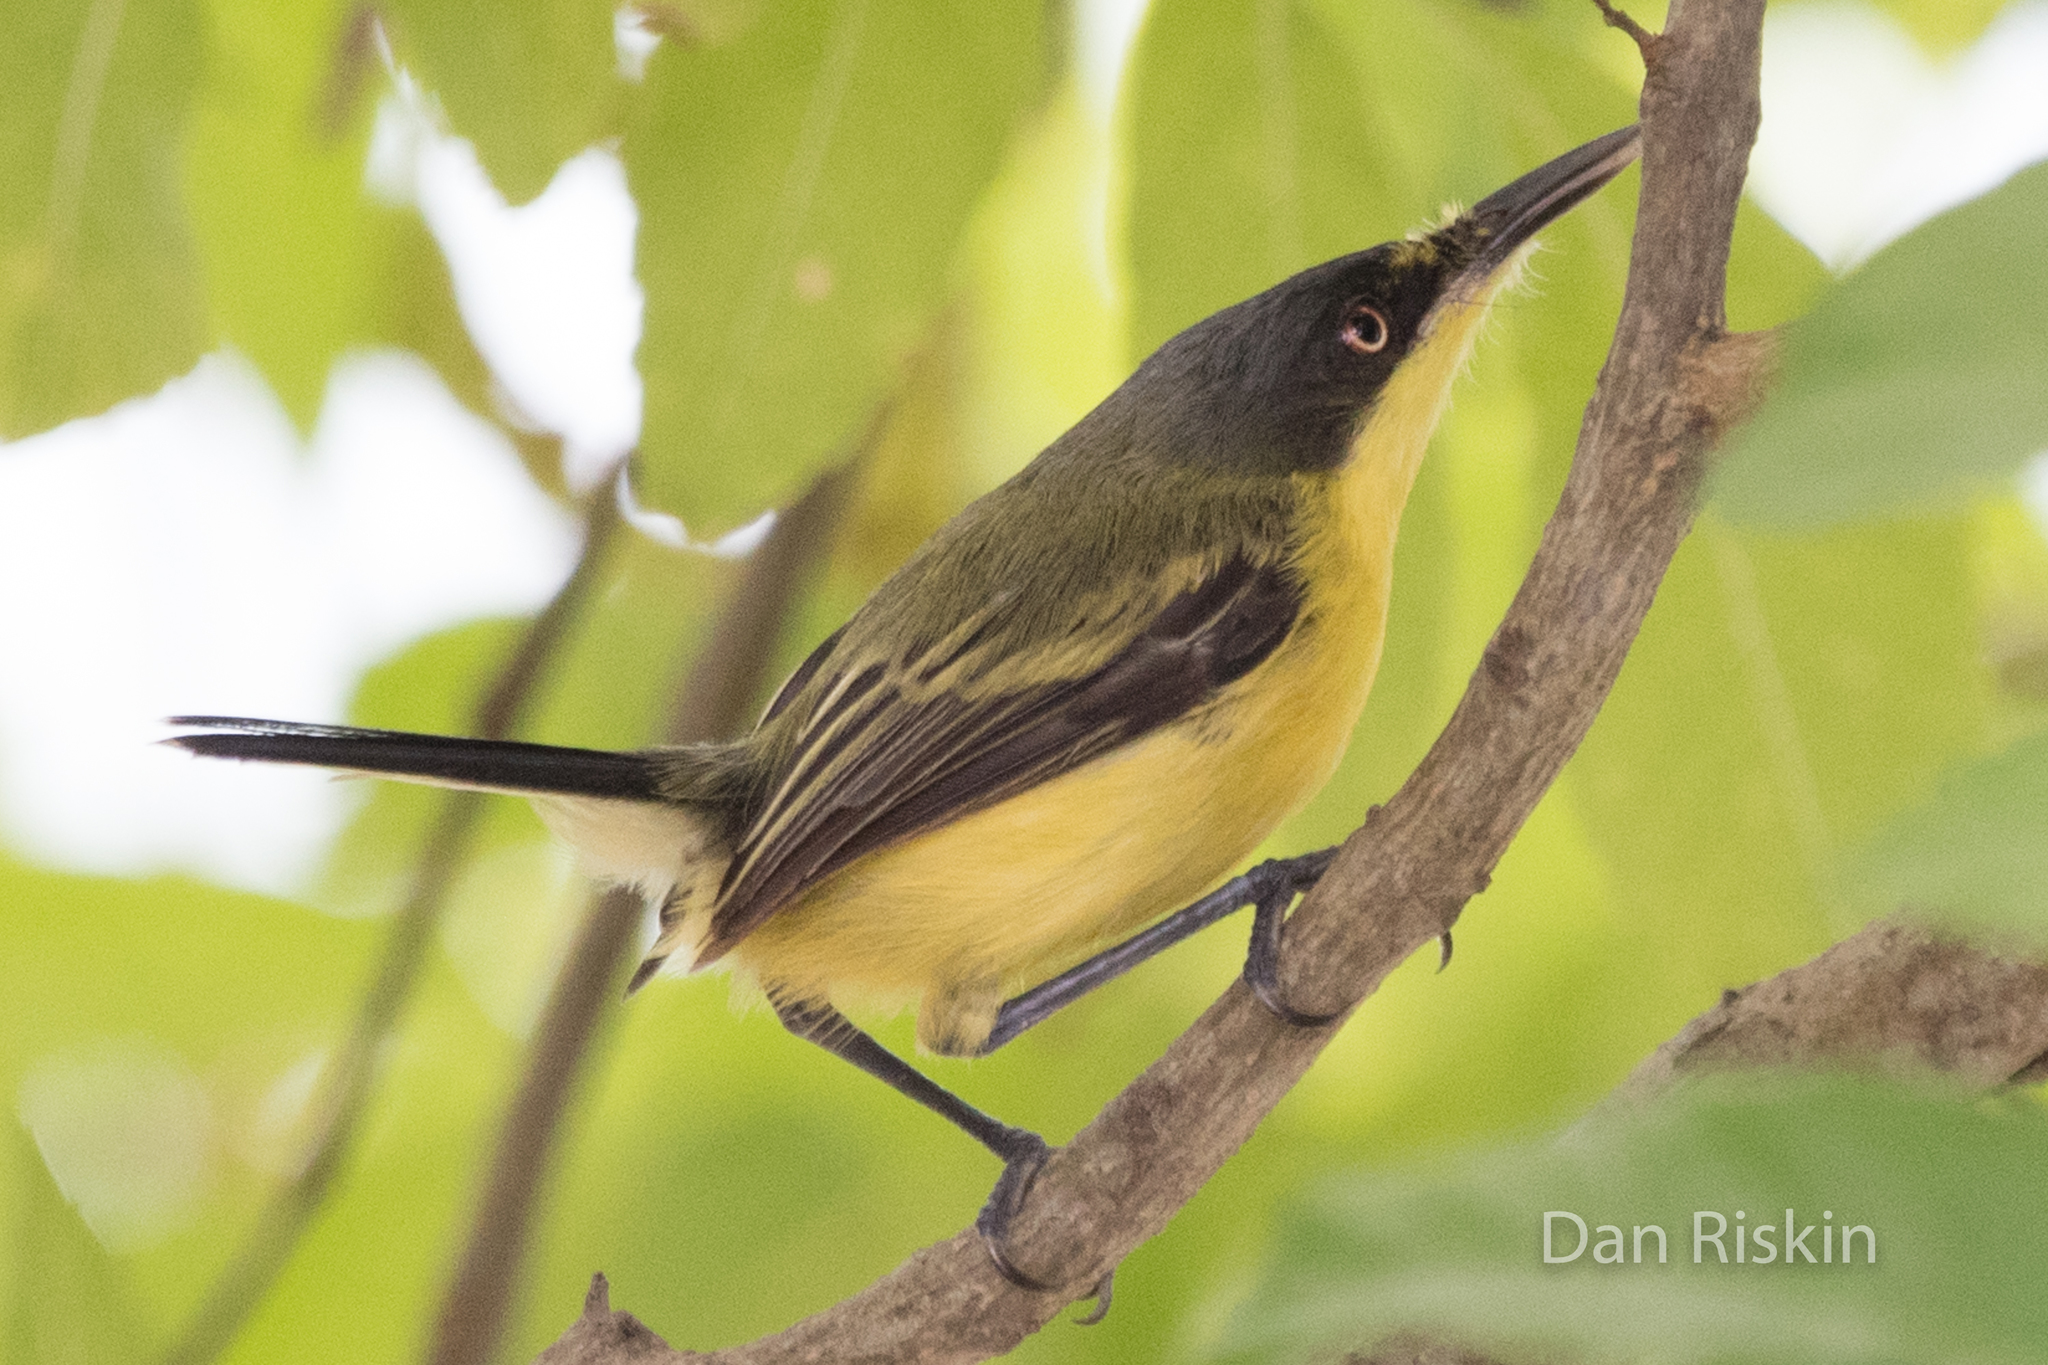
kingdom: Animalia
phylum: Chordata
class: Aves
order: Passeriformes
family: Tyrannidae
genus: Todirostrum
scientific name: Todirostrum cinereum
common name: Common tody-flycatcher
